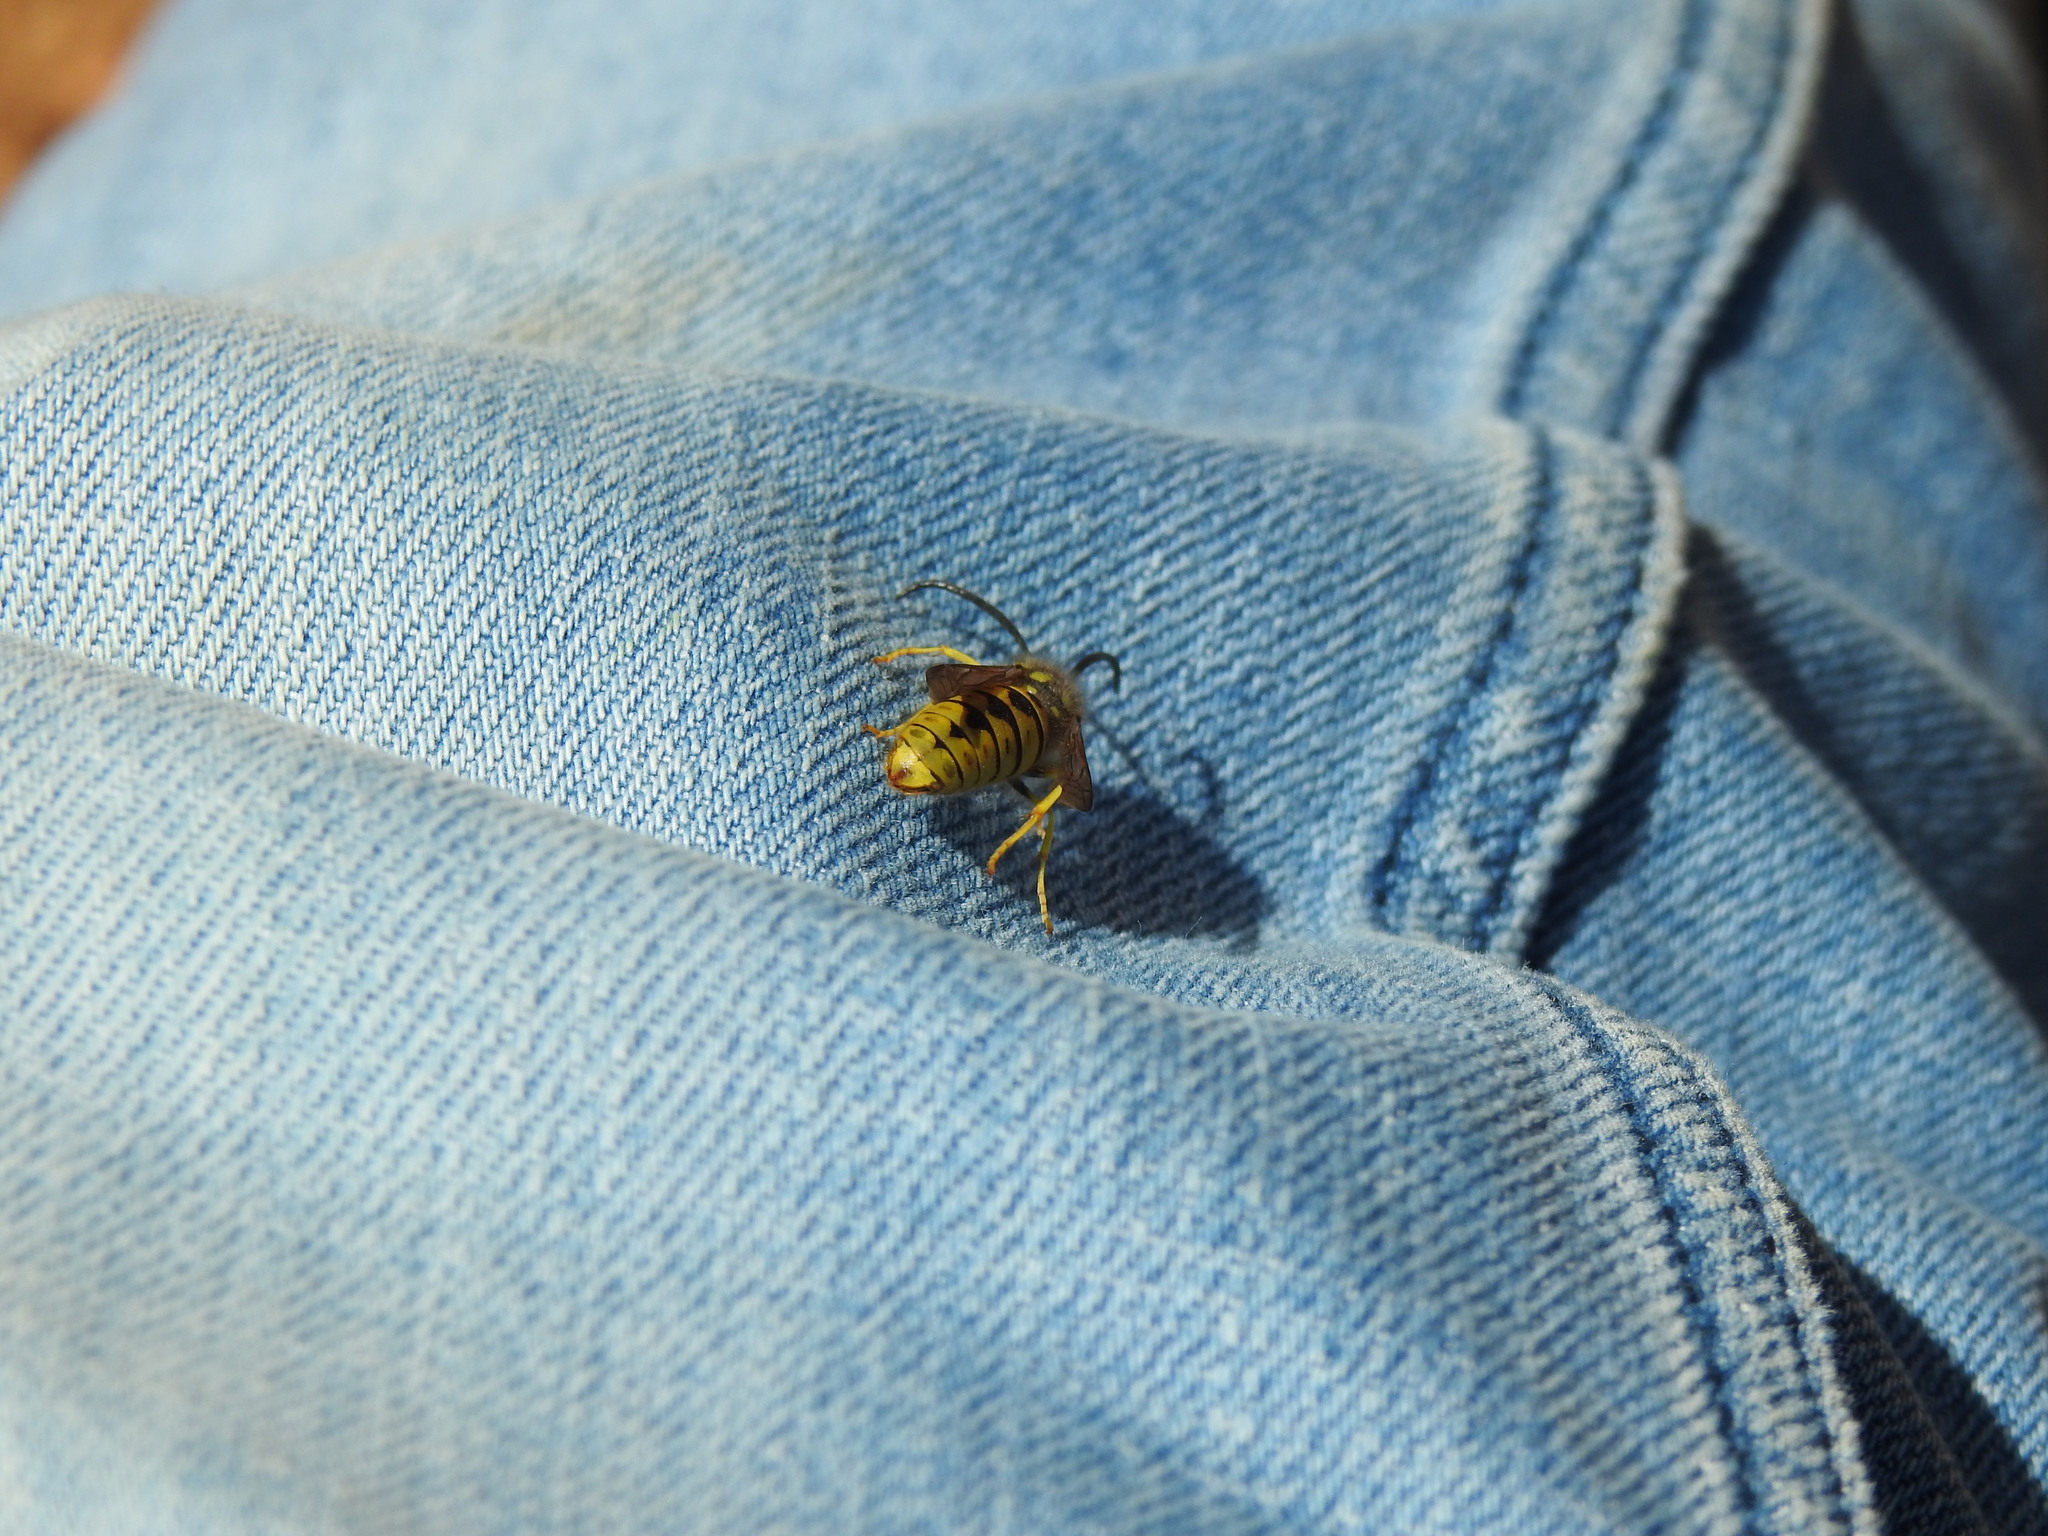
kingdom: Animalia
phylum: Arthropoda
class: Insecta
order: Hymenoptera
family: Vespidae
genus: Vespula
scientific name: Vespula germanica
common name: German wasp
